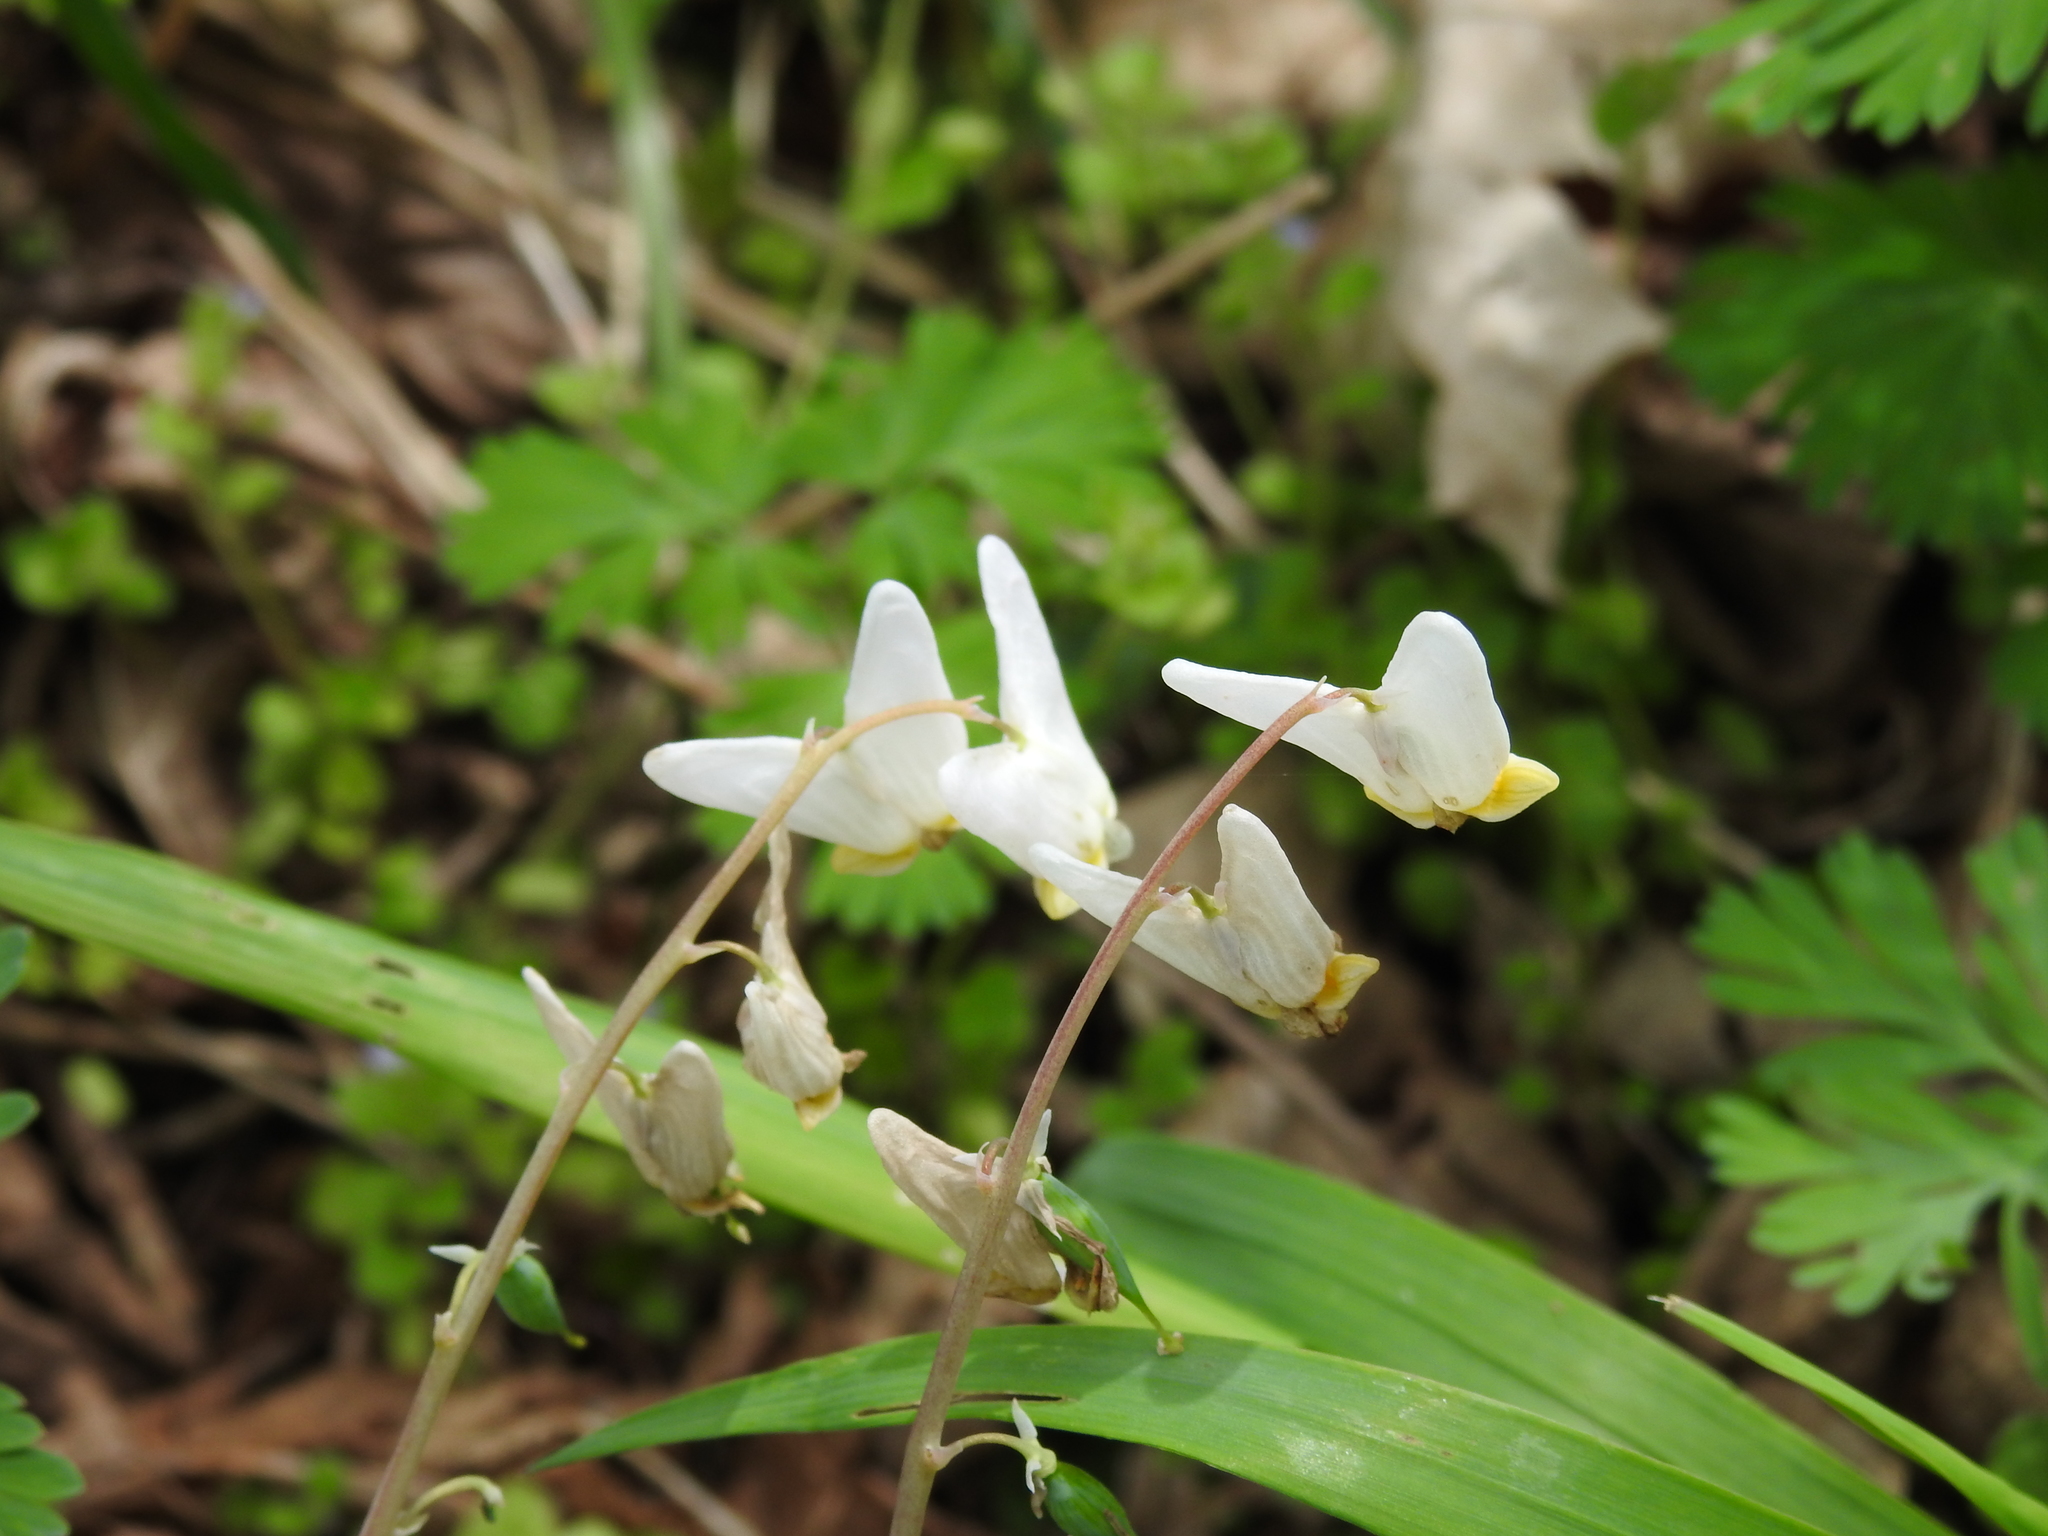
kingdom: Plantae
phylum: Tracheophyta
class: Magnoliopsida
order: Ranunculales
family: Papaveraceae
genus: Dicentra
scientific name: Dicentra cucullaria
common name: Dutchman's breeches
